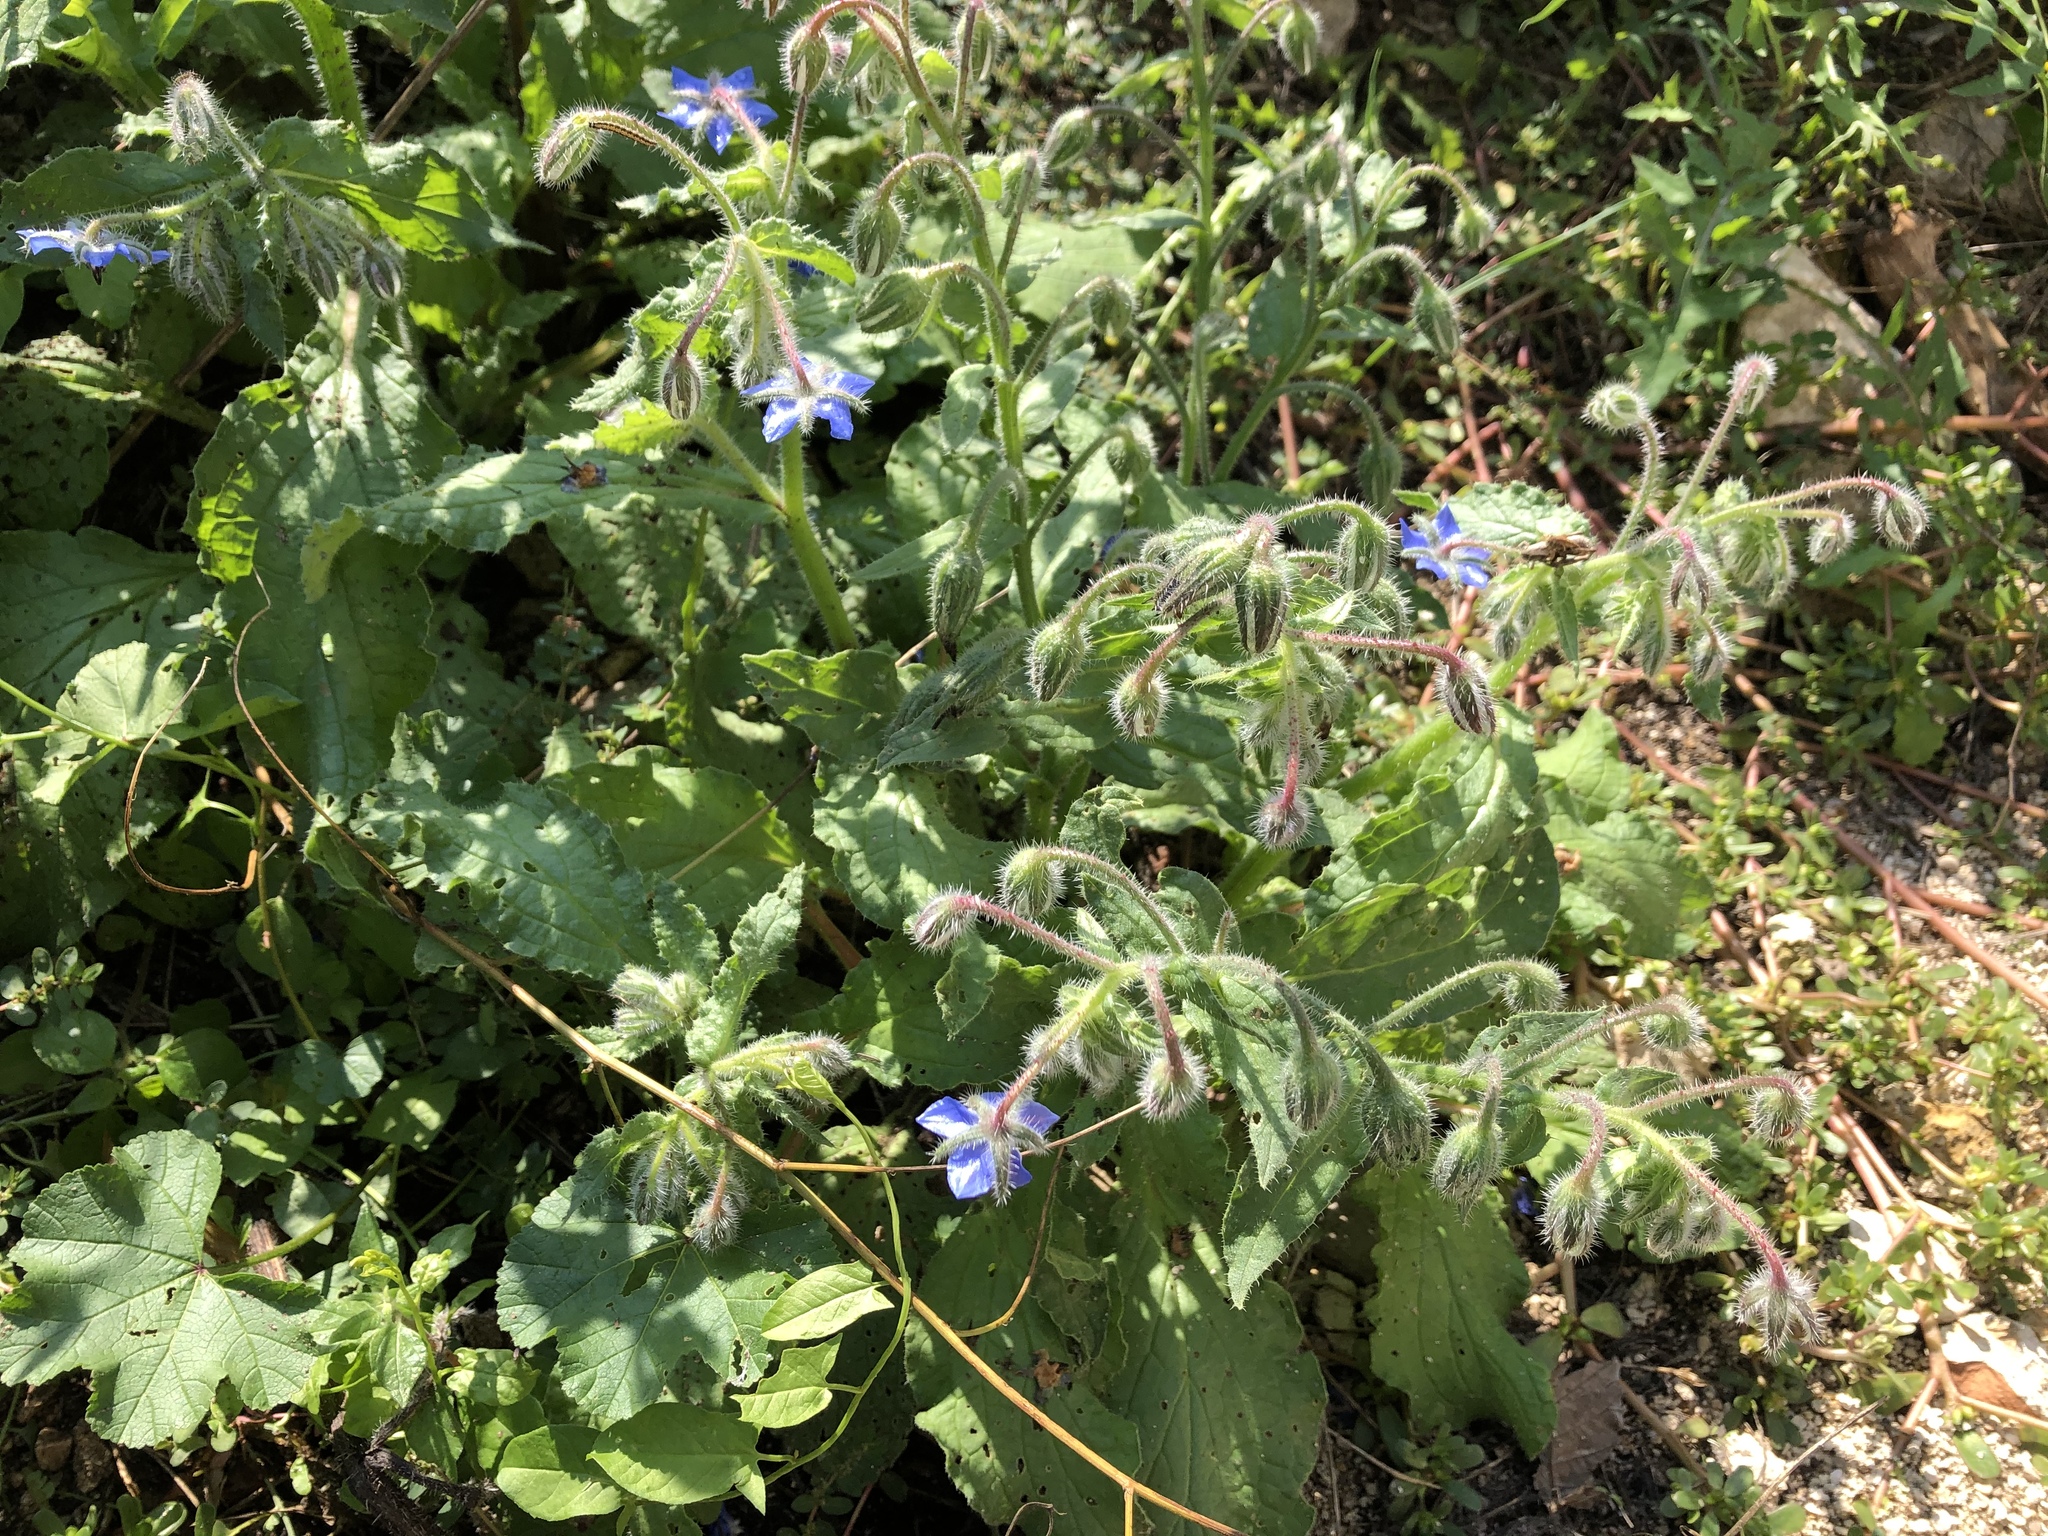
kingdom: Plantae
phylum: Tracheophyta
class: Magnoliopsida
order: Boraginales
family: Boraginaceae
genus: Borago
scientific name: Borago officinalis
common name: Borage
